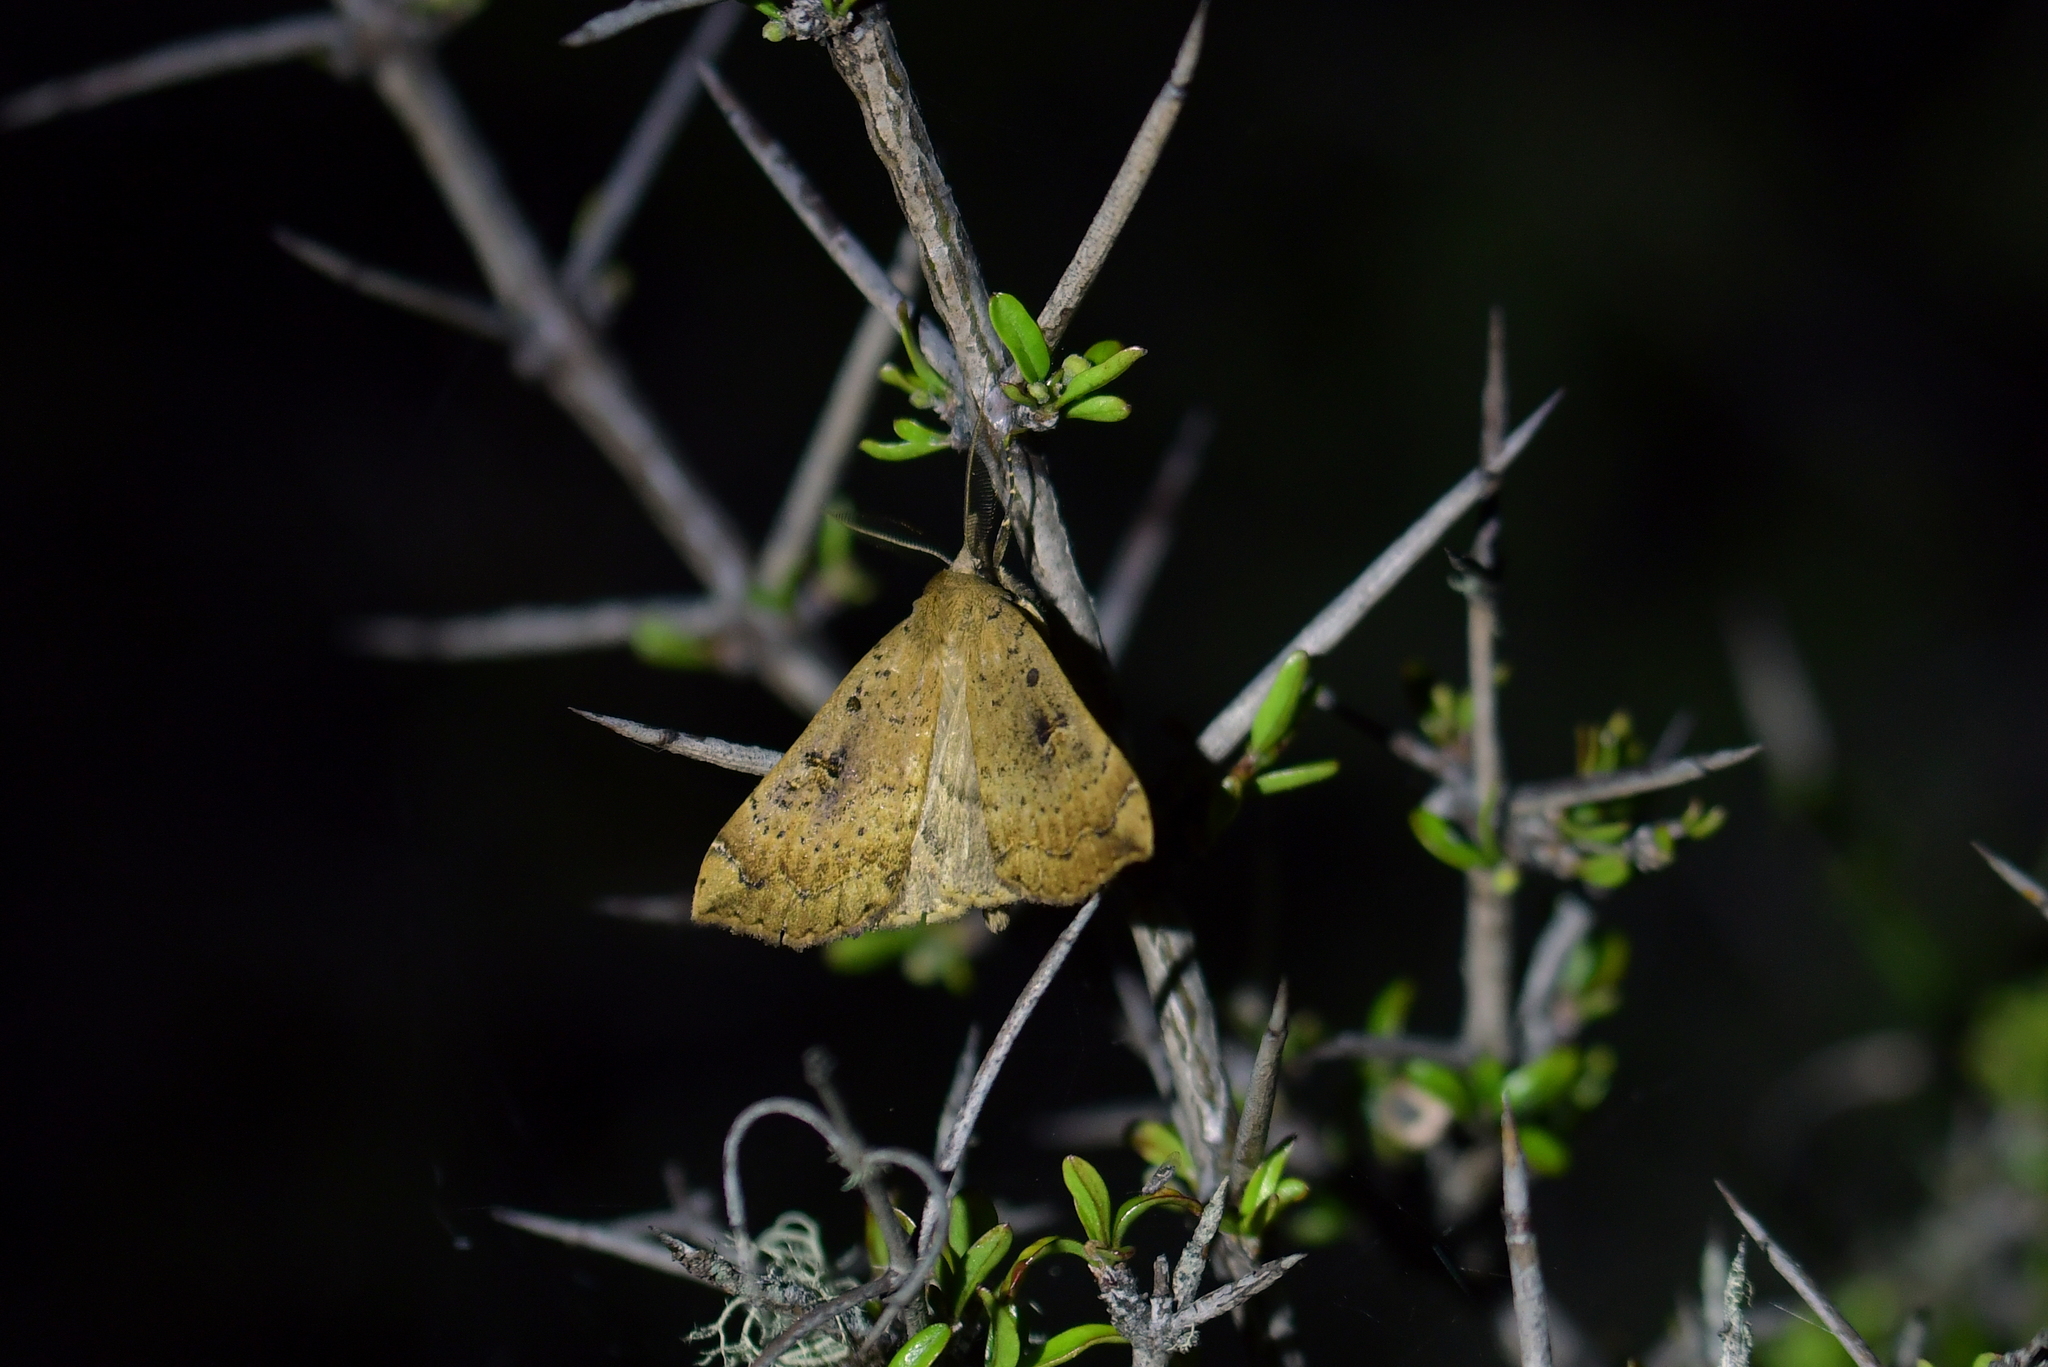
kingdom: Animalia
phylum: Arthropoda
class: Insecta
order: Lepidoptera
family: Erebidae
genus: Rhapsa
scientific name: Rhapsa scotosialis
